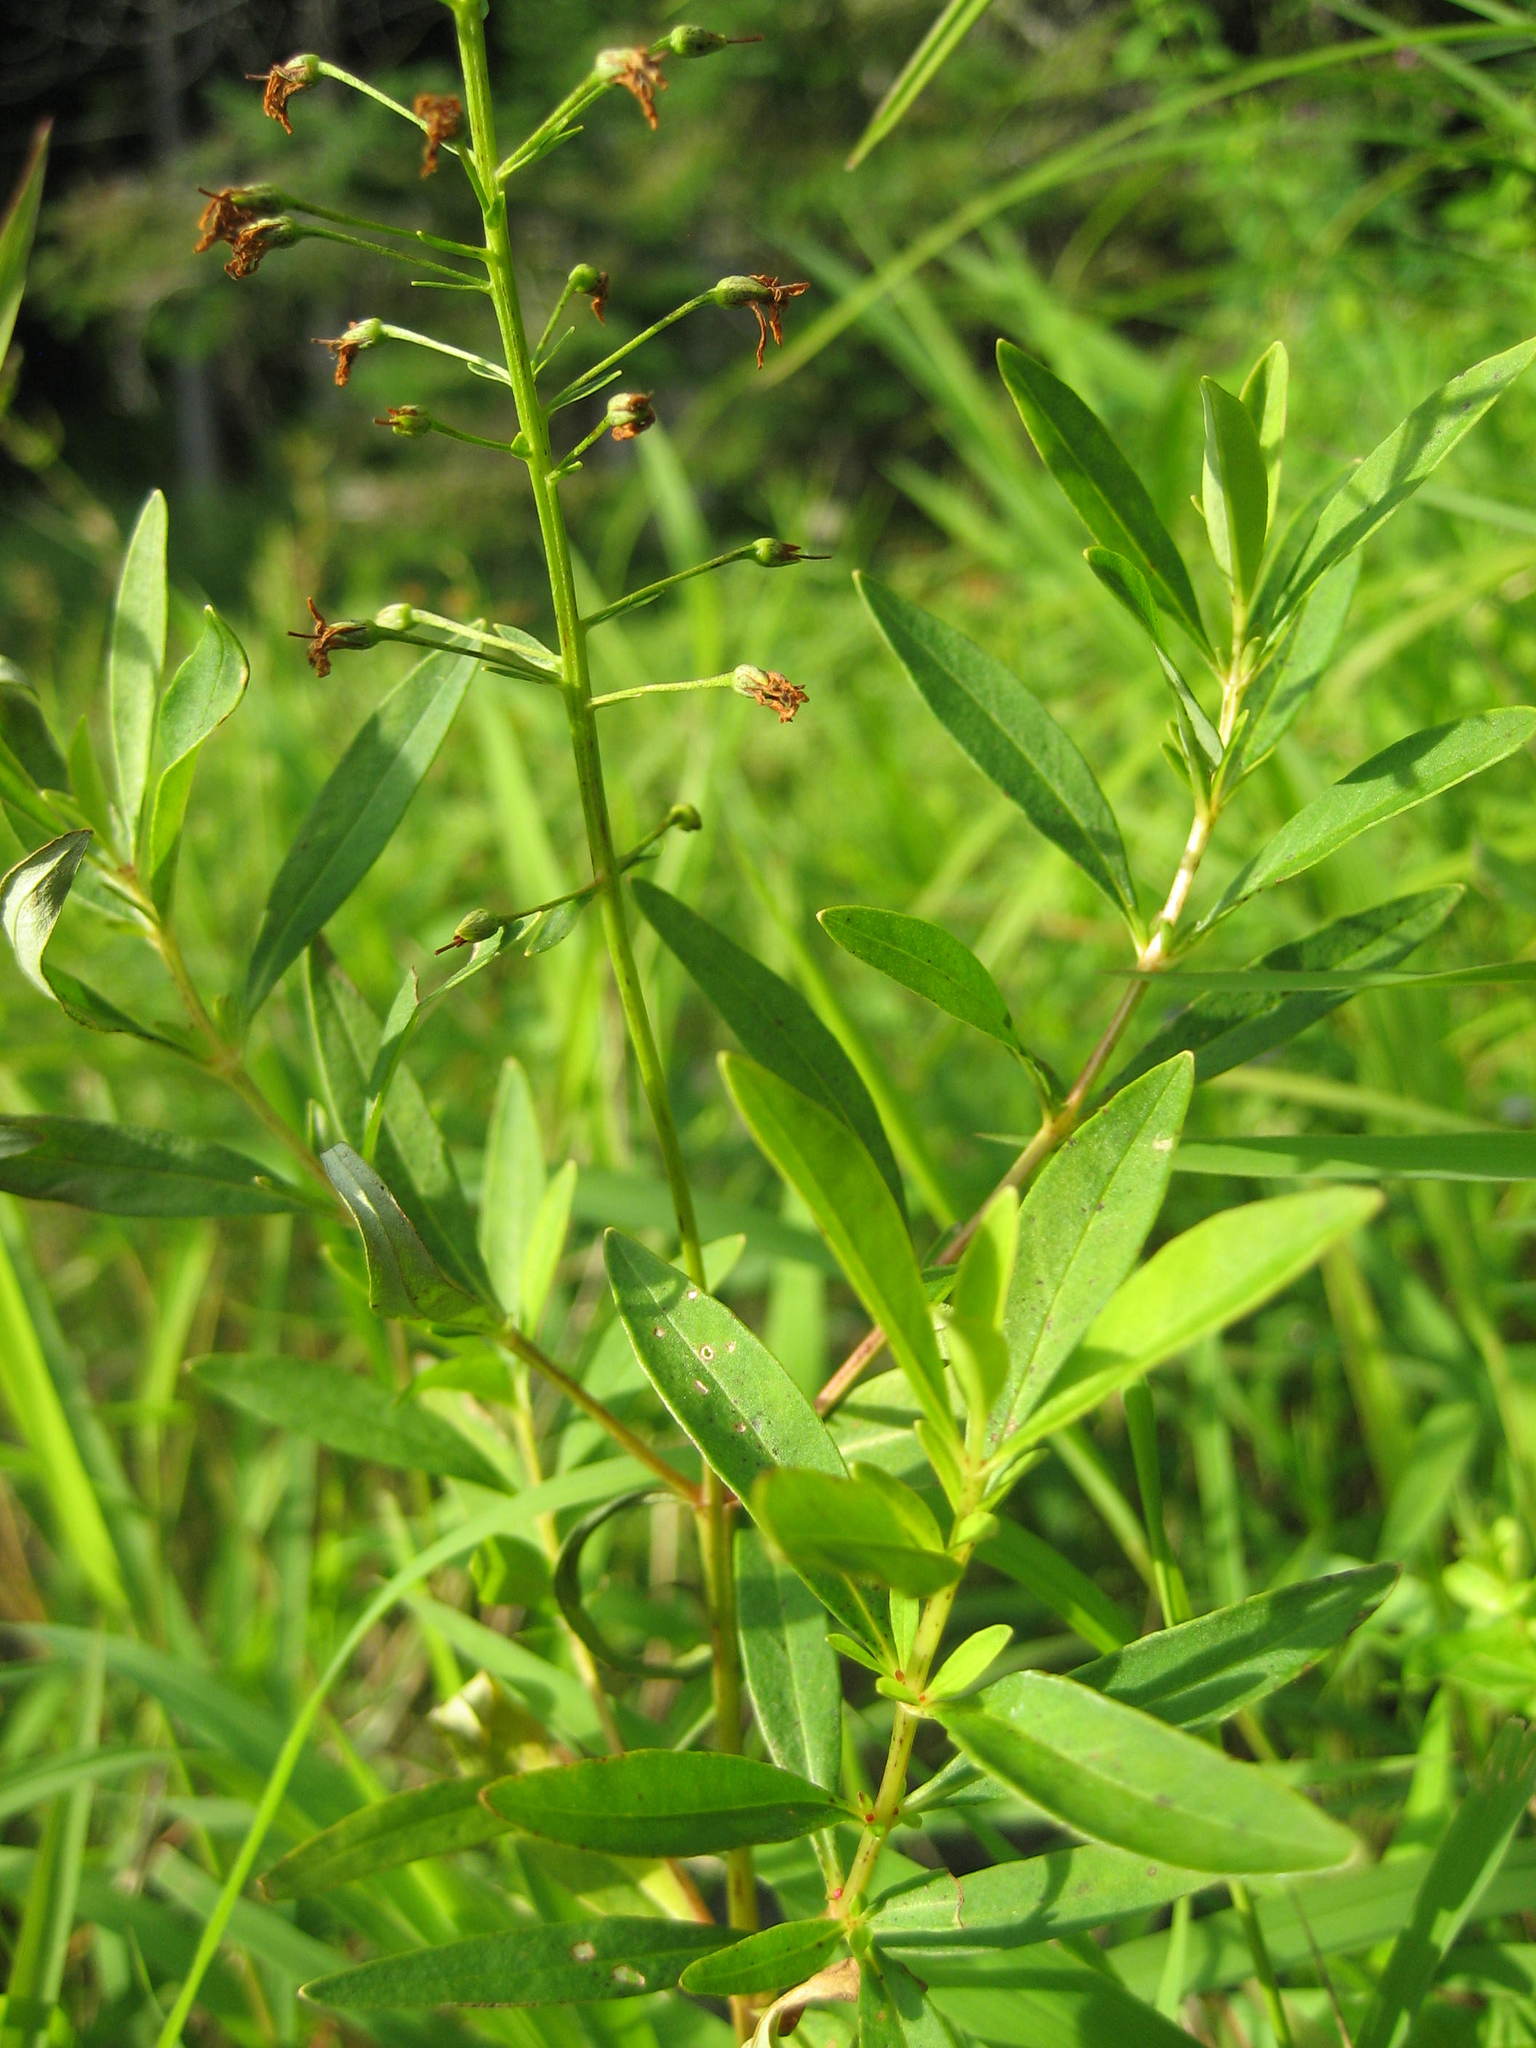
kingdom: Plantae
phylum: Tracheophyta
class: Magnoliopsida
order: Ericales
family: Primulaceae
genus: Lysimachia
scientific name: Lysimachia terrestris
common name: Lake loosestrife
